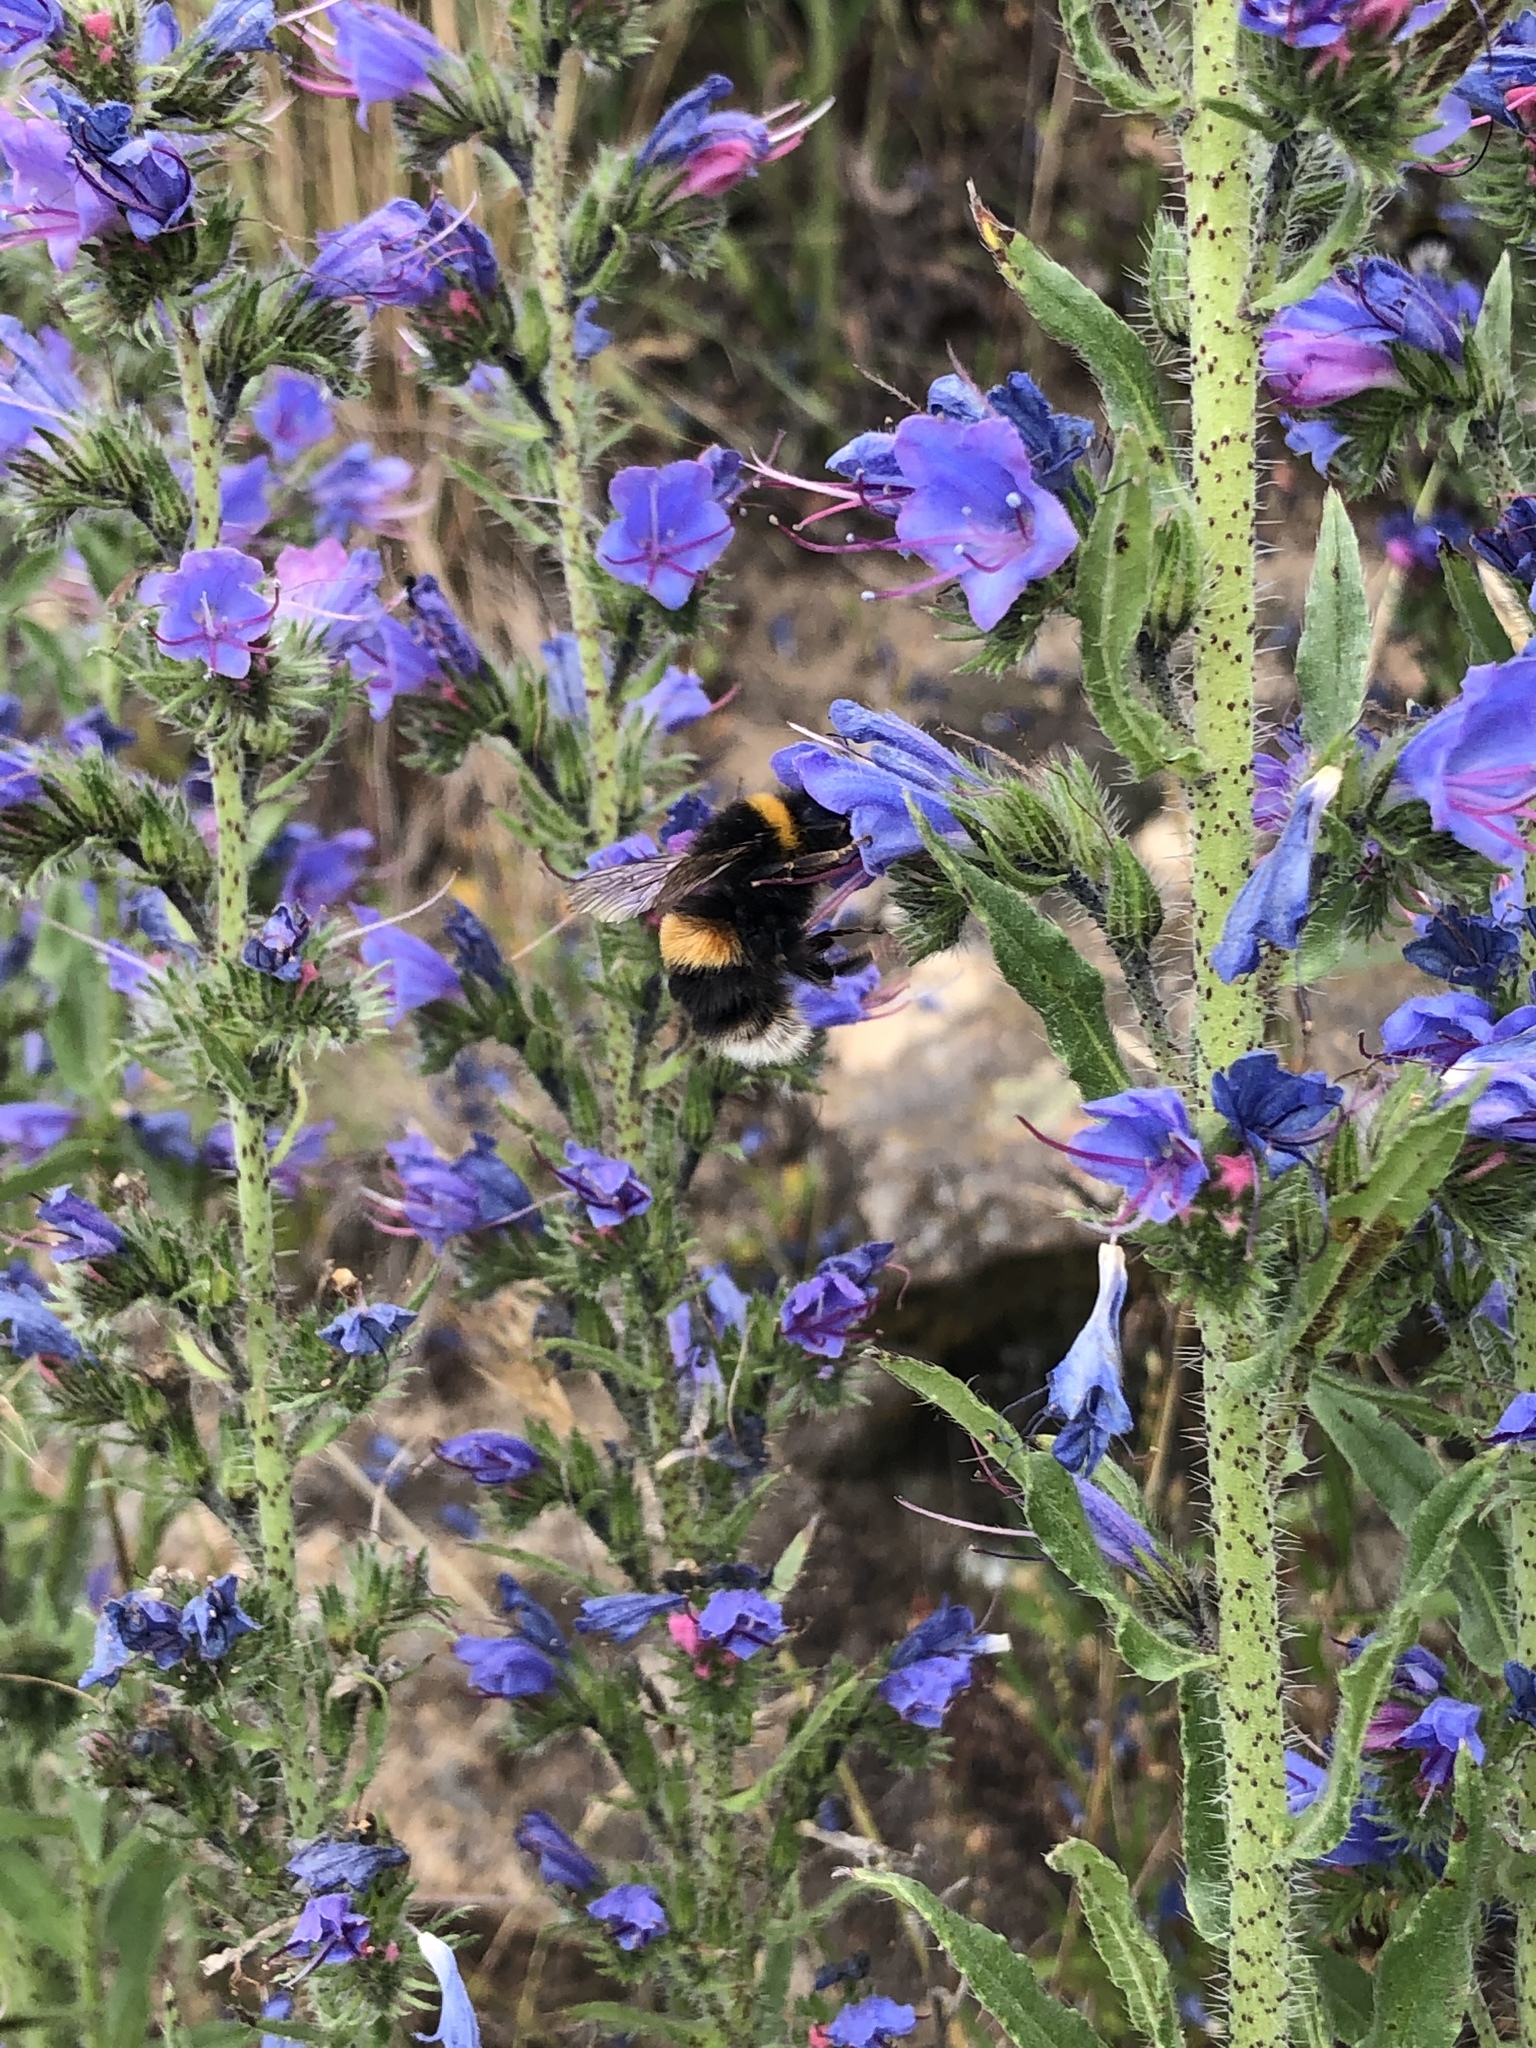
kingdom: Animalia
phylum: Arthropoda
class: Insecta
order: Hymenoptera
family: Apidae
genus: Bombus
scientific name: Bombus terrestris
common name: Buff-tailed bumblebee
